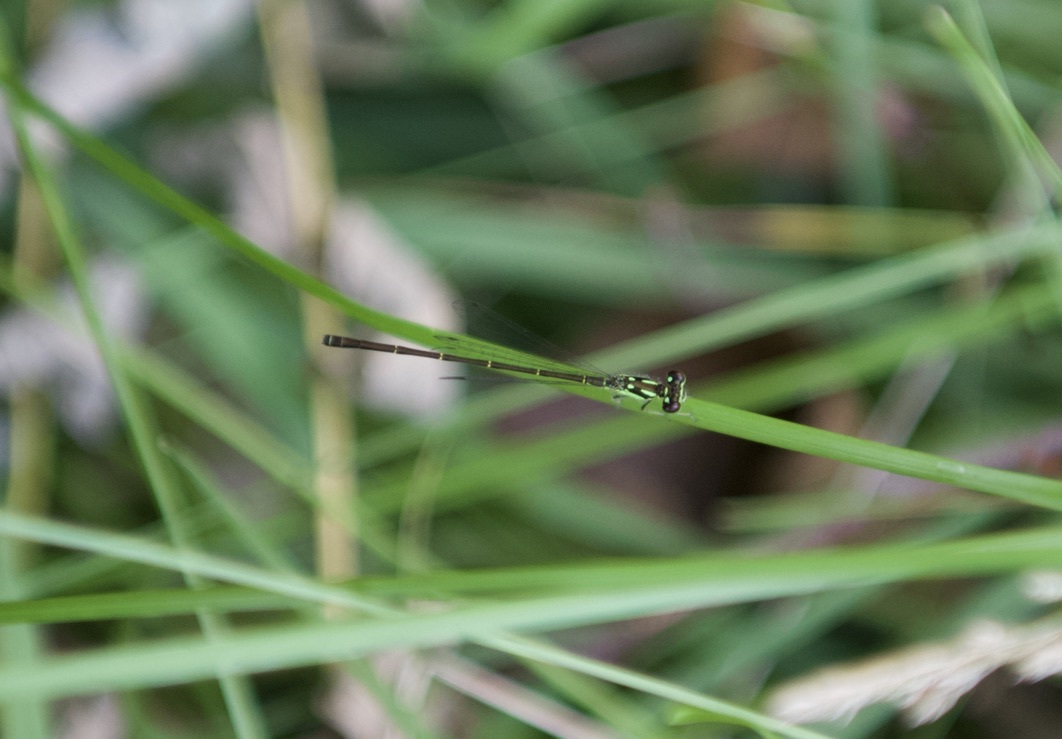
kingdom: Animalia
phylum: Arthropoda
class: Insecta
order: Odonata
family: Coenagrionidae
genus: Ischnura
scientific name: Ischnura posita
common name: Fragile forktail
